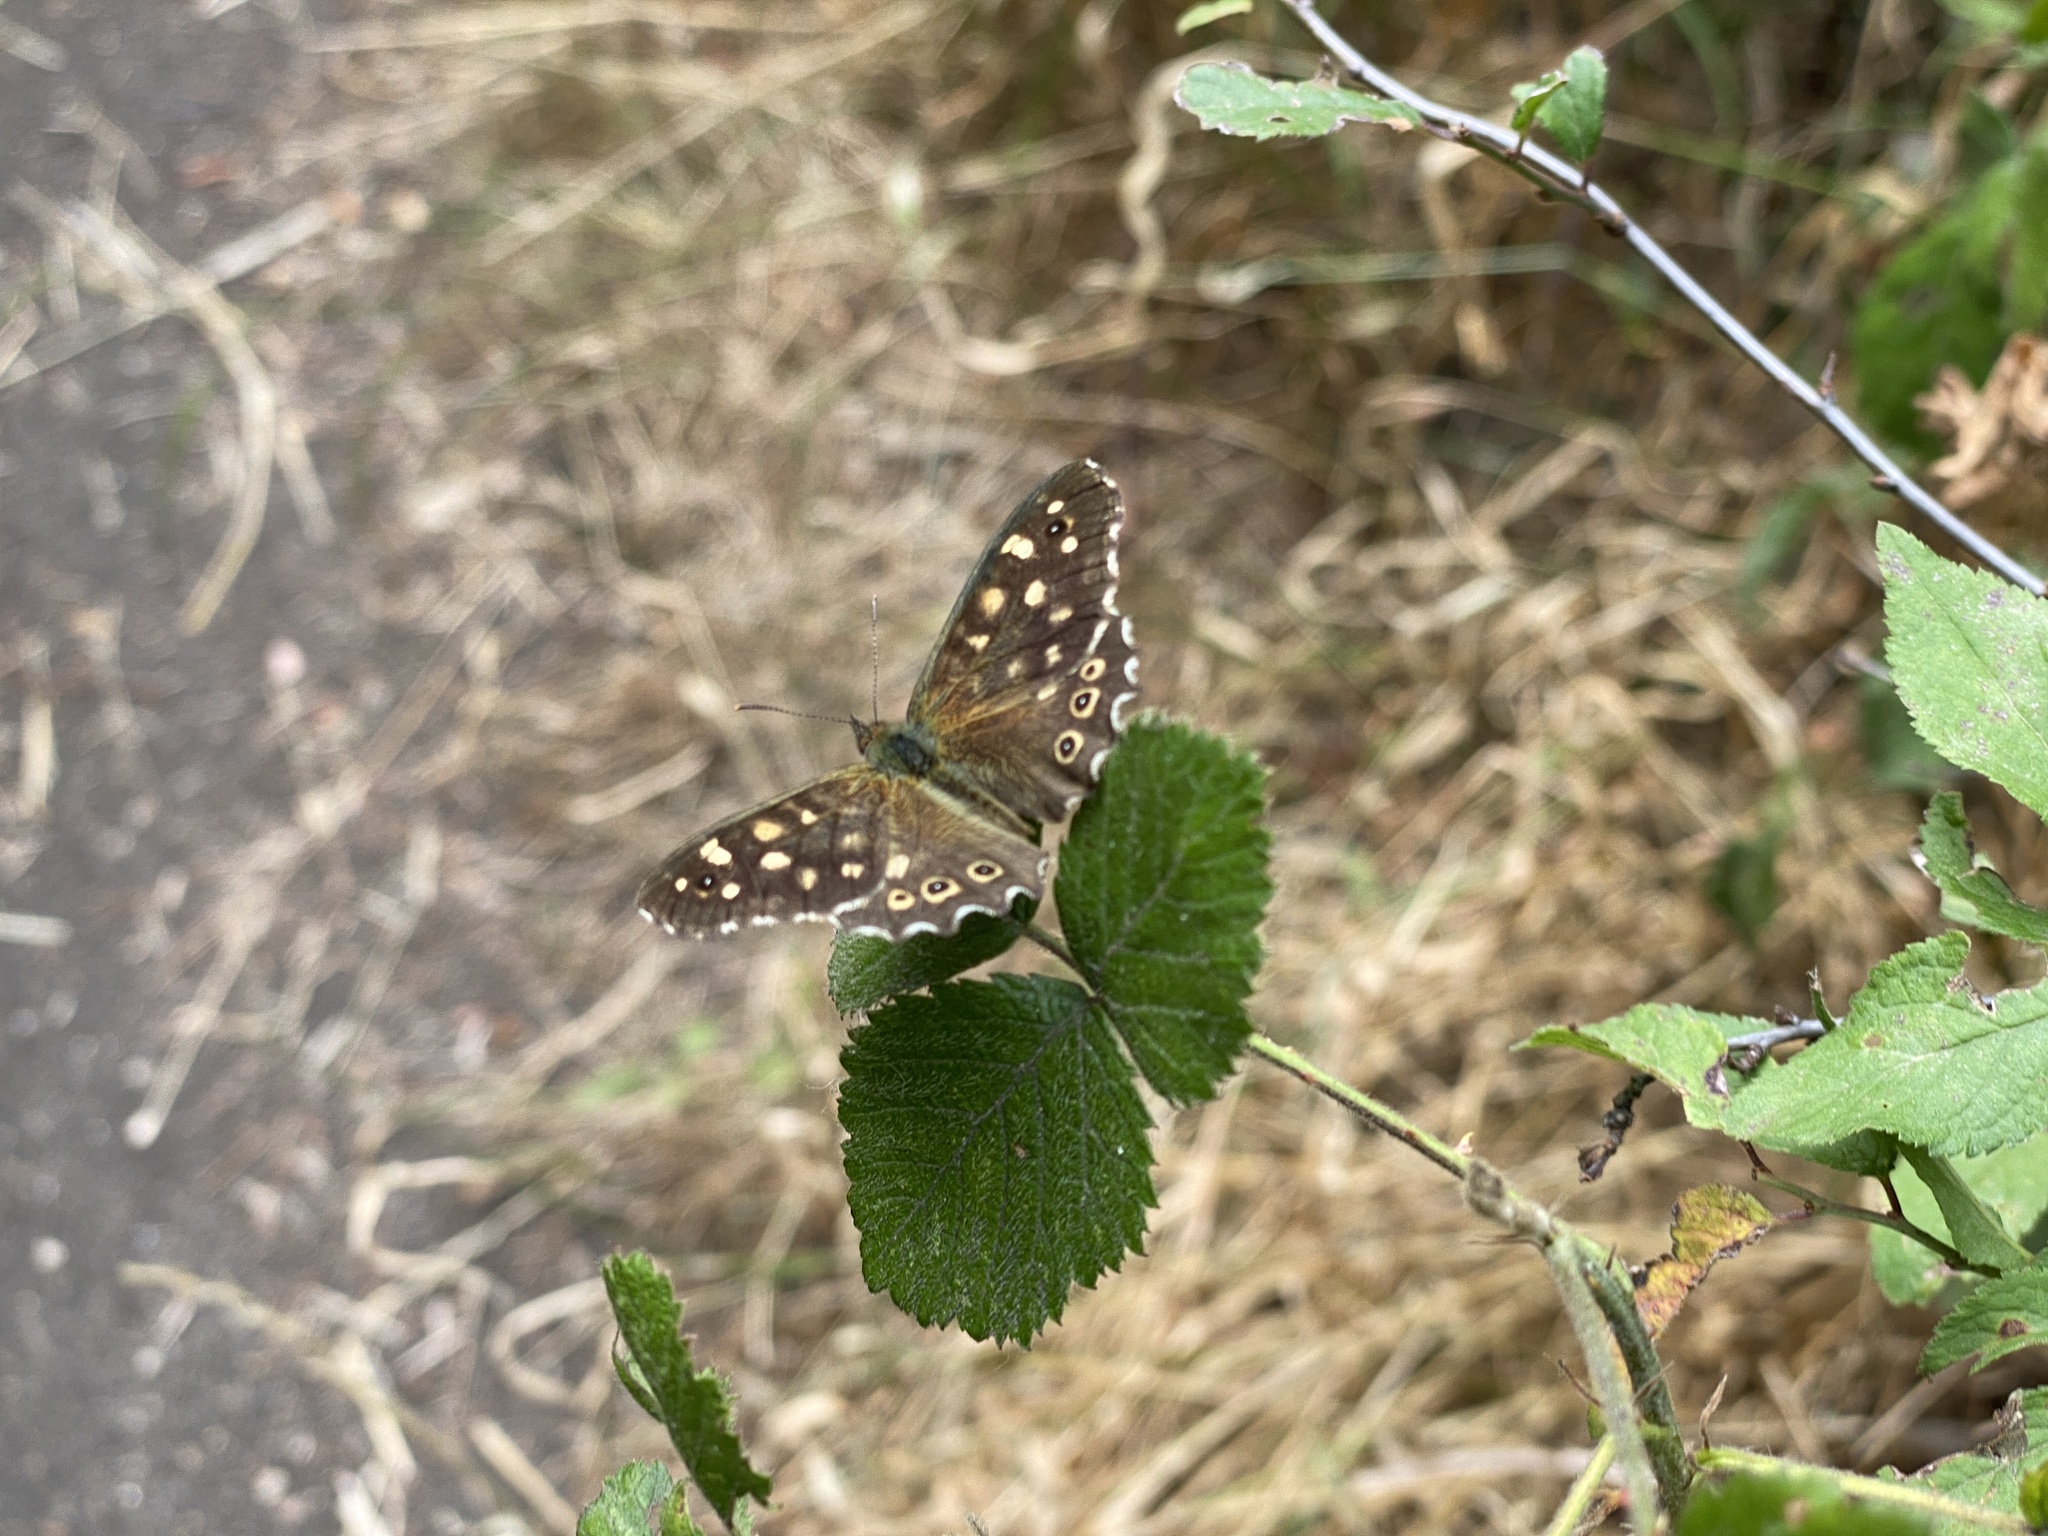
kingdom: Animalia
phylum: Arthropoda
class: Insecta
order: Lepidoptera
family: Nymphalidae
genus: Pararge
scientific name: Pararge aegeria
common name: Speckled wood
